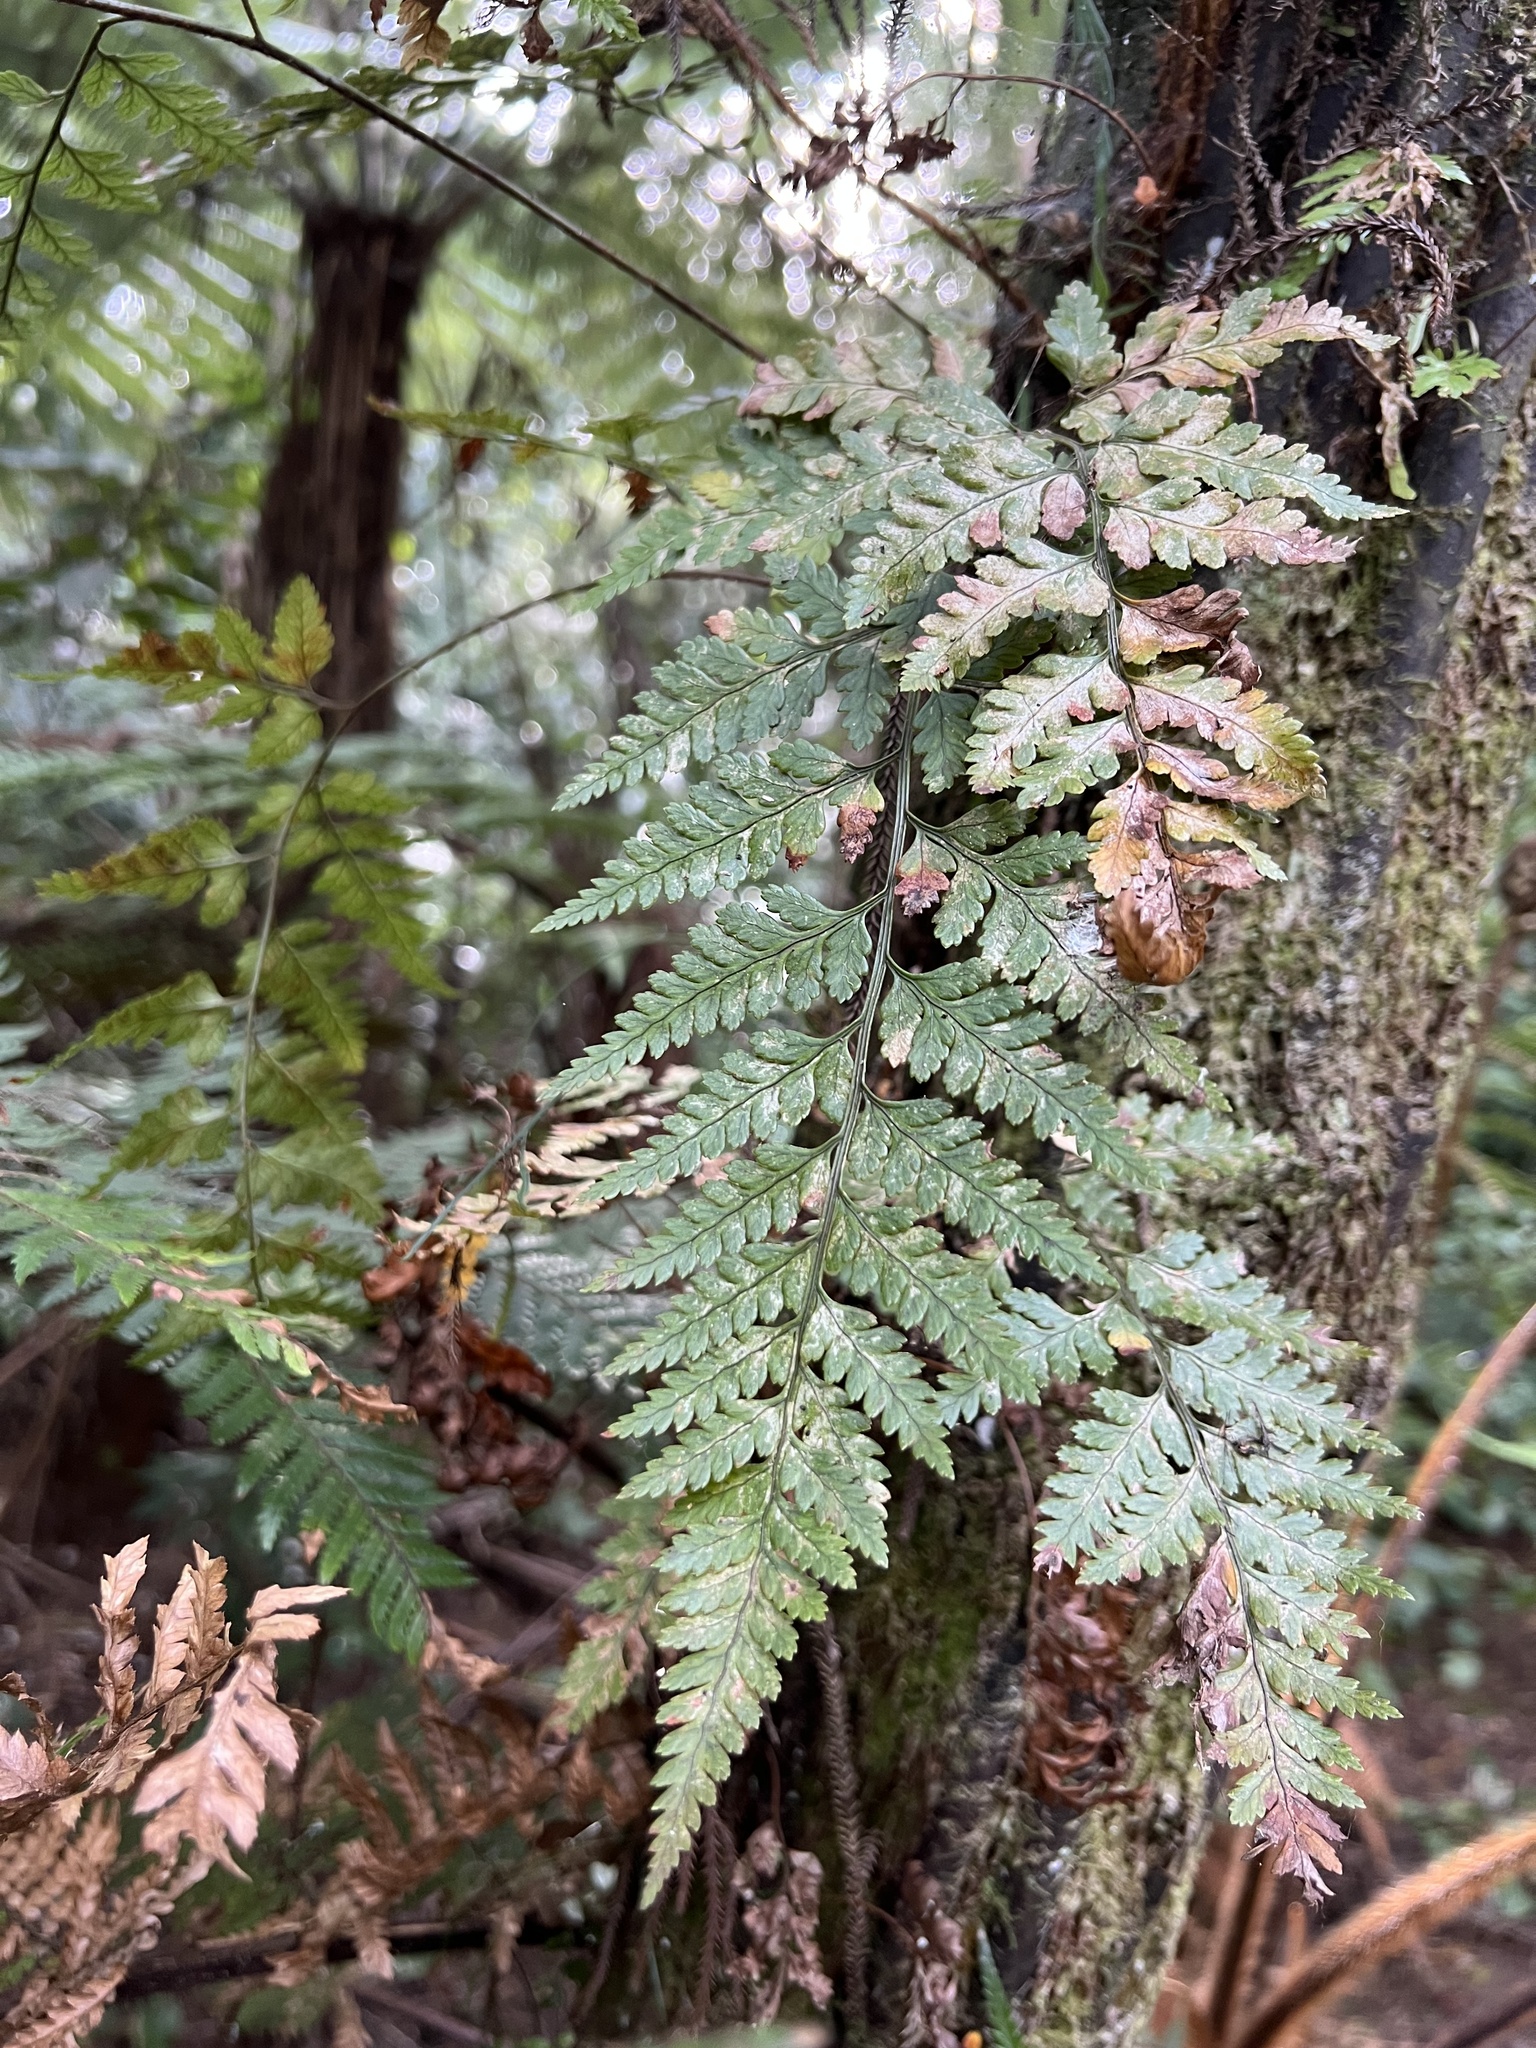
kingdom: Plantae
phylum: Tracheophyta
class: Polypodiopsida
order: Polypodiales
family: Dryopteridaceae
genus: Rumohra
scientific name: Rumohra adiantiformis
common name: Leather fern
